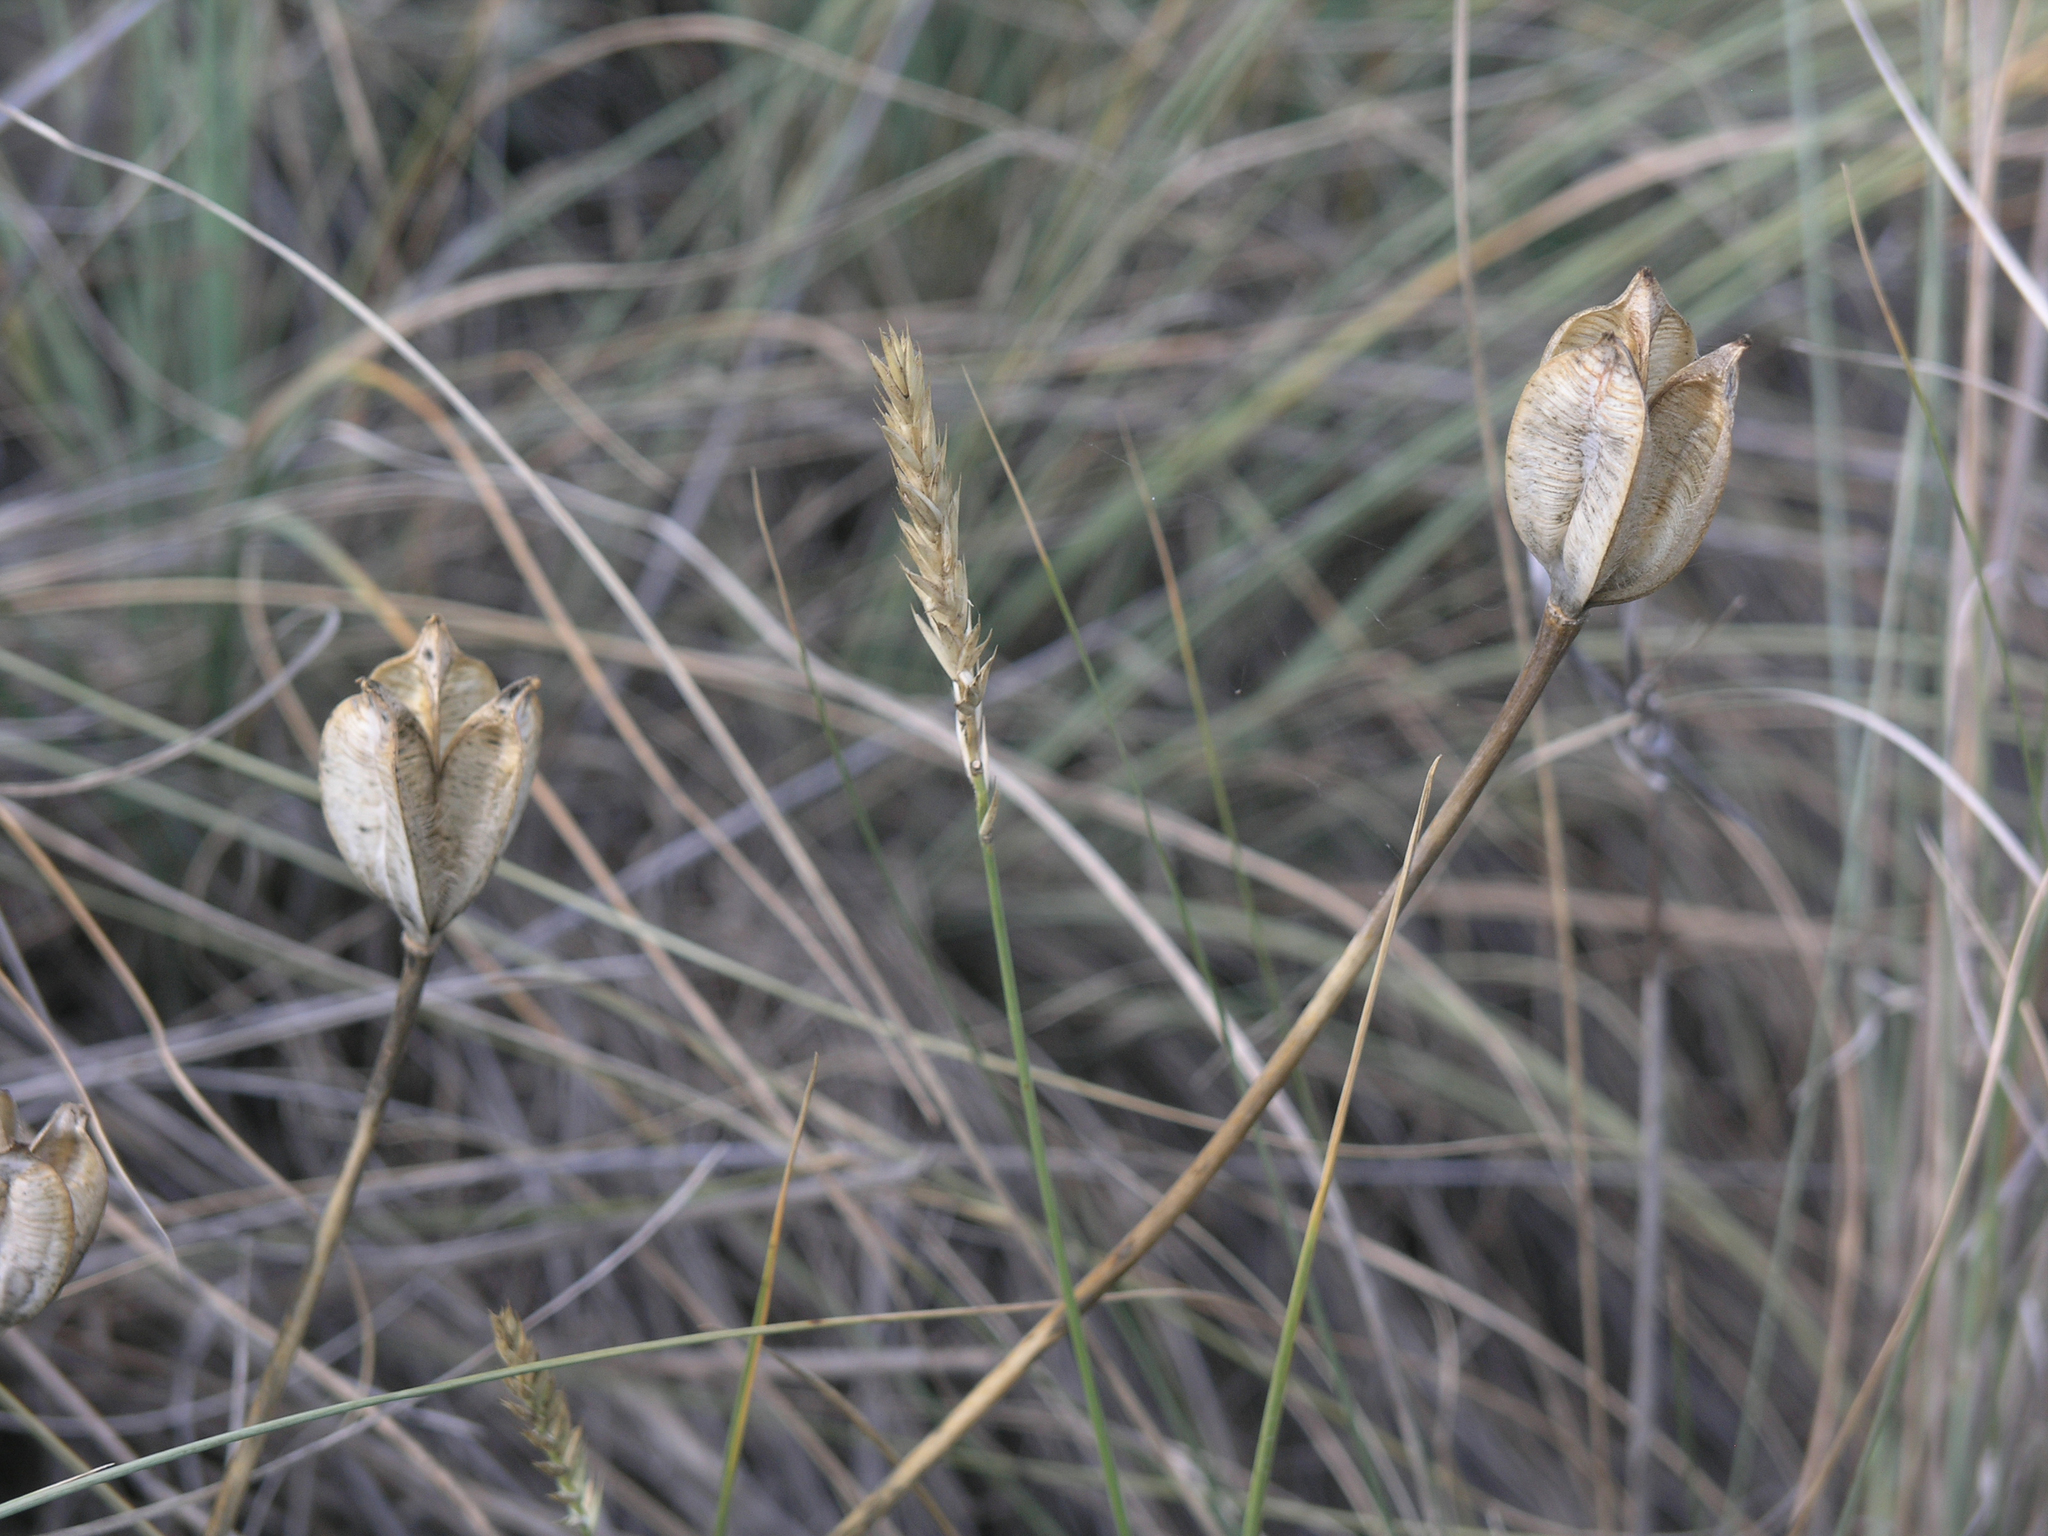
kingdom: Plantae
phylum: Tracheophyta
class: Liliopsida
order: Liliales
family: Liliaceae
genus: Tulipa
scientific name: Tulipa patens
